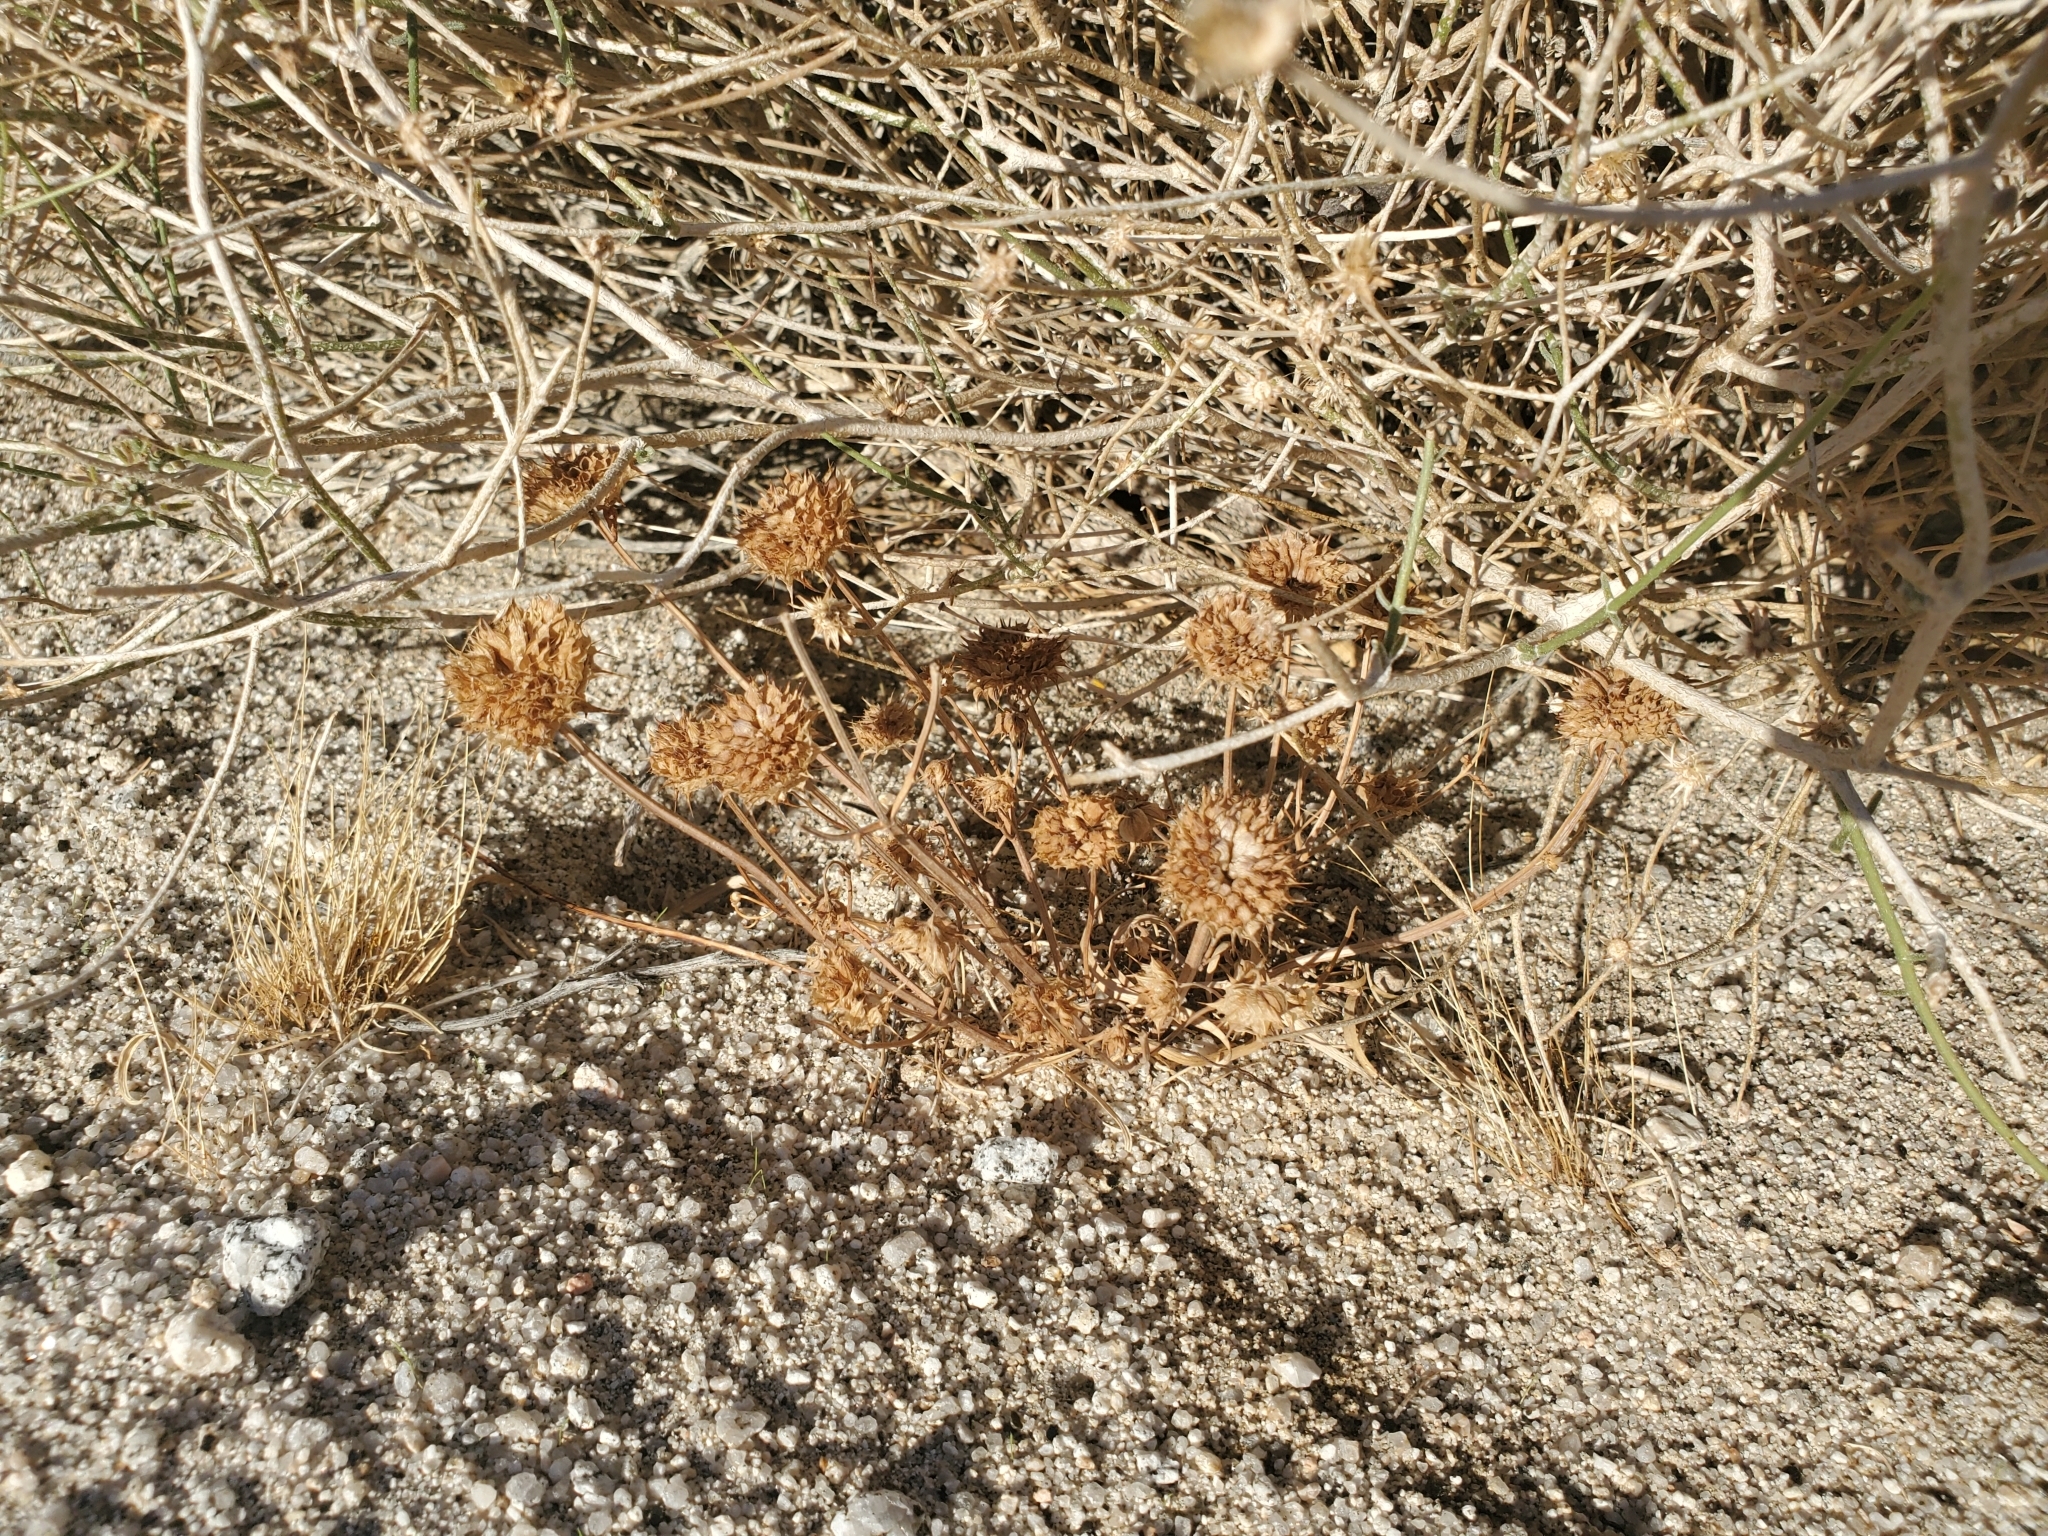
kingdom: Plantae
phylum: Tracheophyta
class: Magnoliopsida
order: Lamiales
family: Lamiaceae
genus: Salvia
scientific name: Salvia columbariae
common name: Chia
